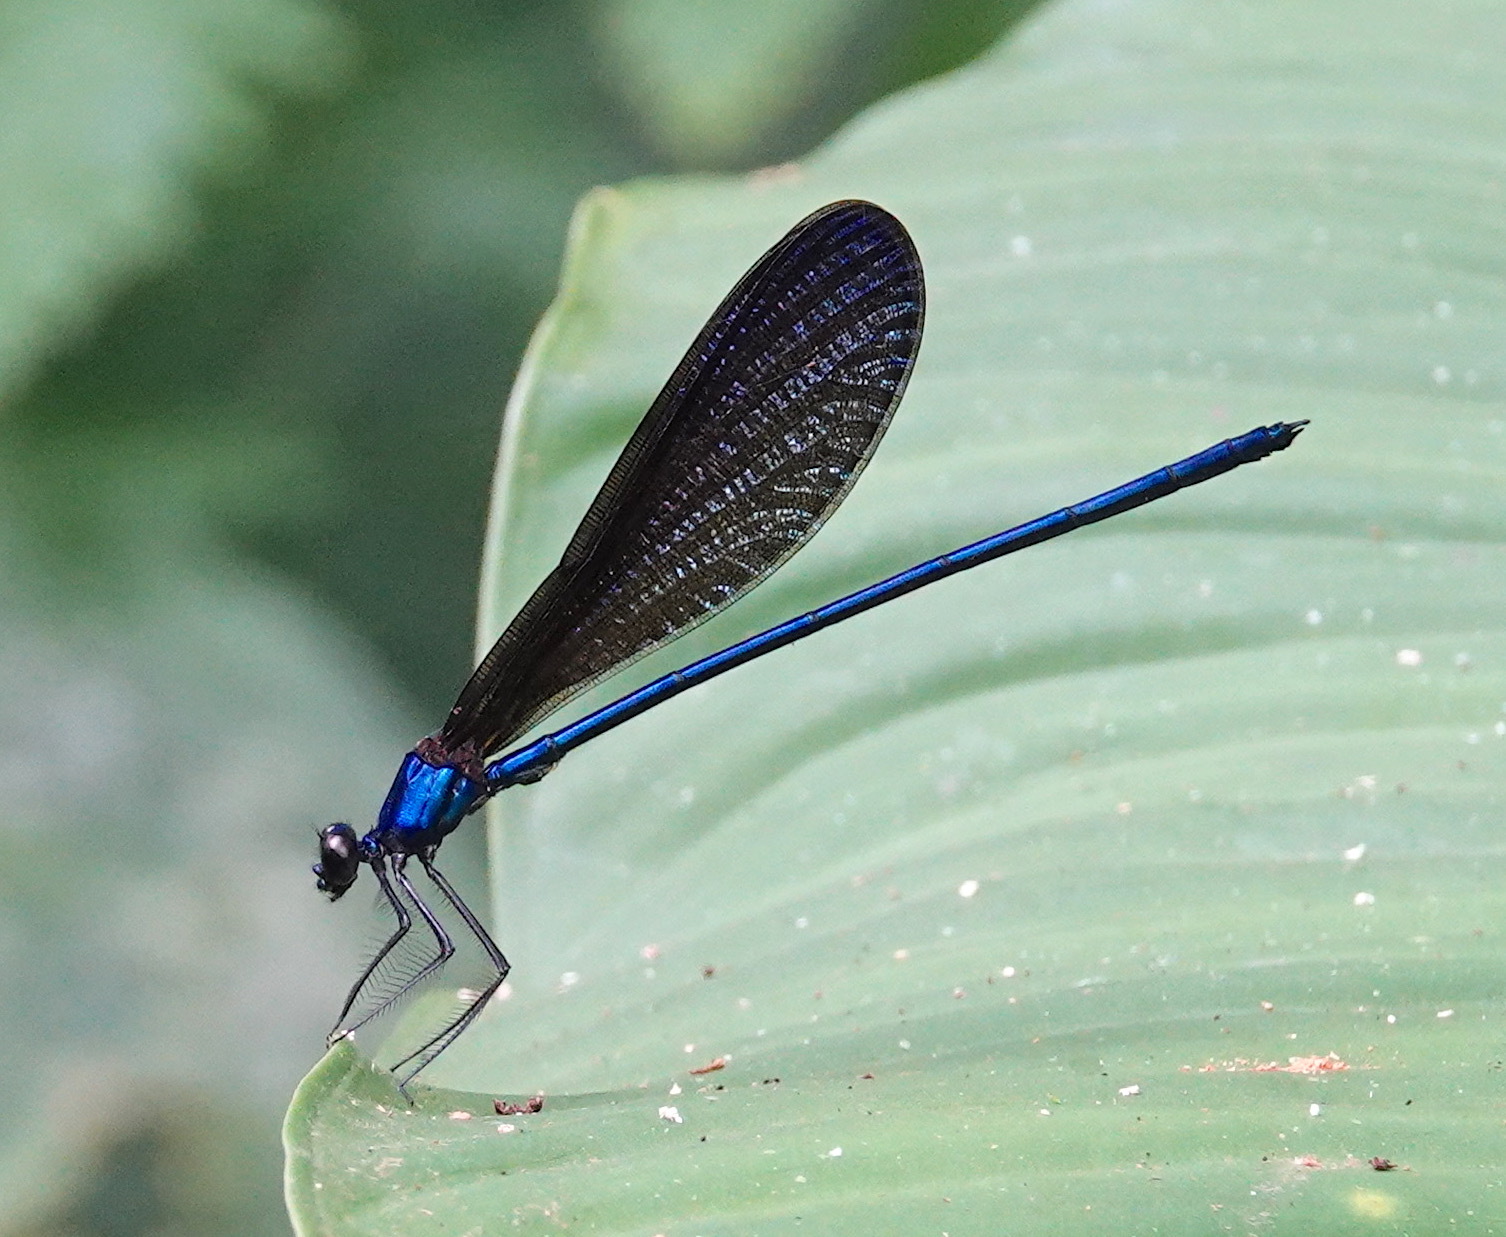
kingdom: Animalia
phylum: Arthropoda
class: Insecta
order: Odonata
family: Calopterygidae
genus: Vestalis
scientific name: Vestalis luctuosa
